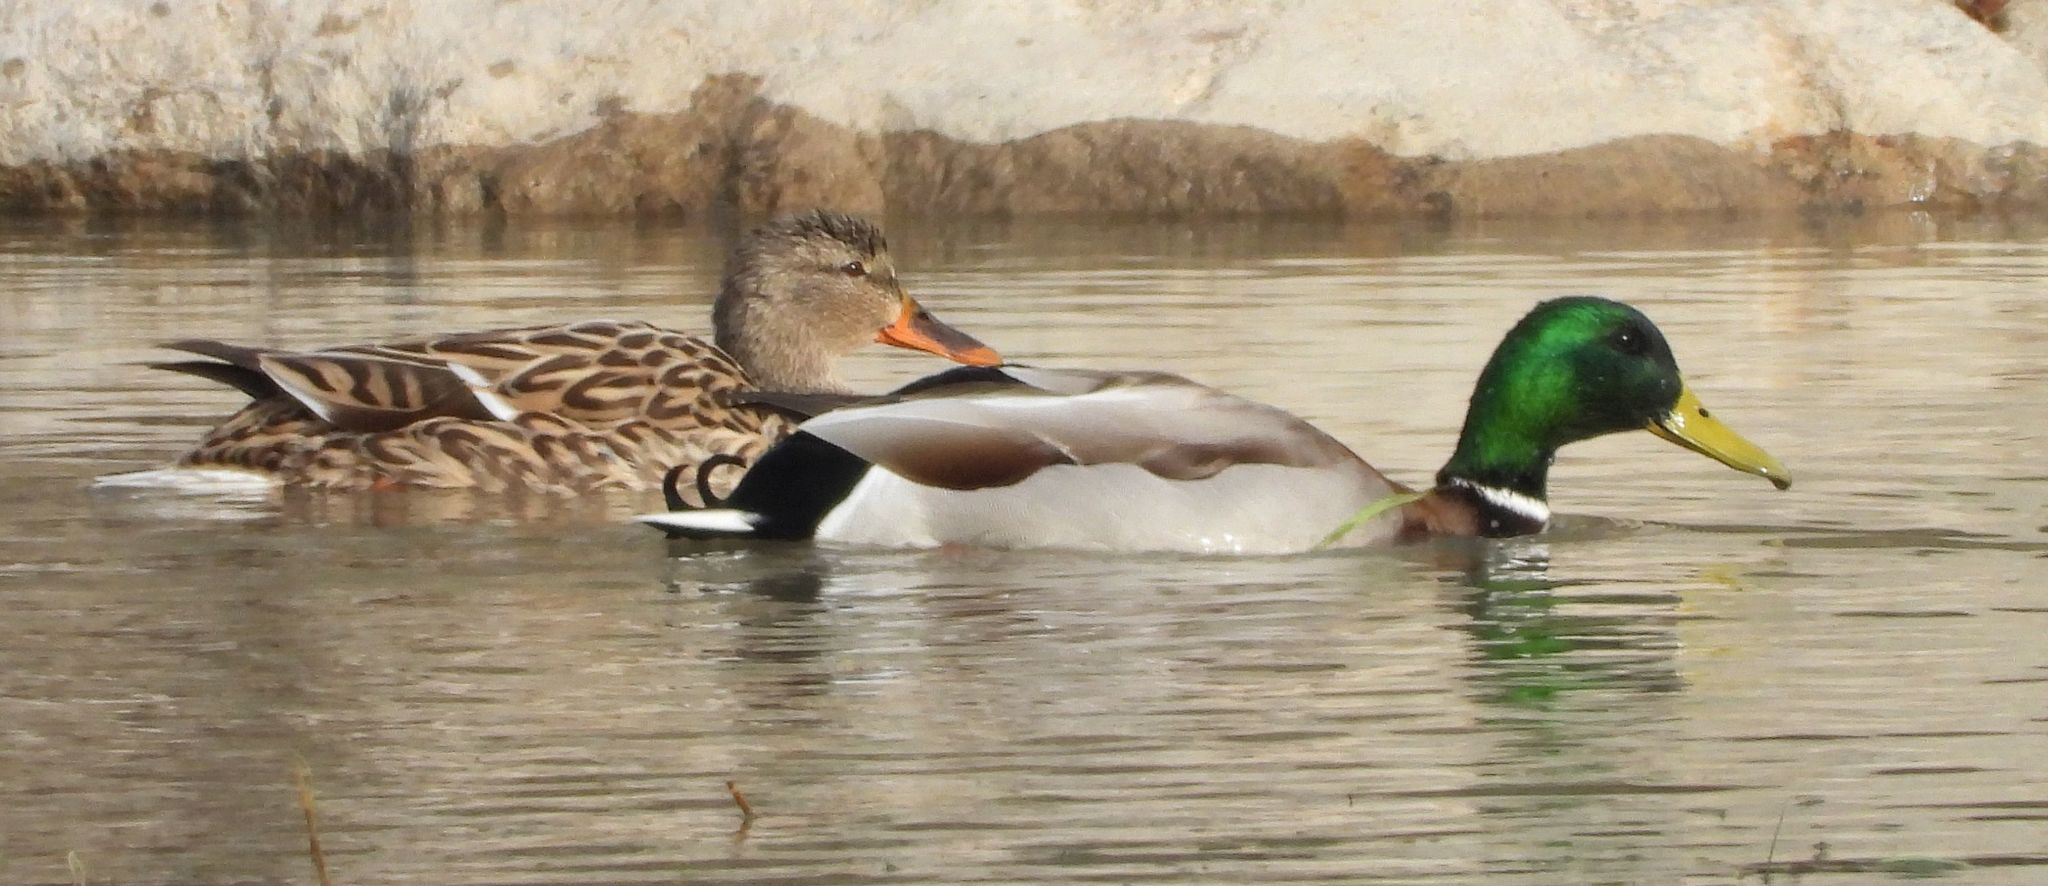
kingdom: Animalia
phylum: Chordata
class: Aves
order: Anseriformes
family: Anatidae
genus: Anas
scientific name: Anas platyrhynchos
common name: Mallard
